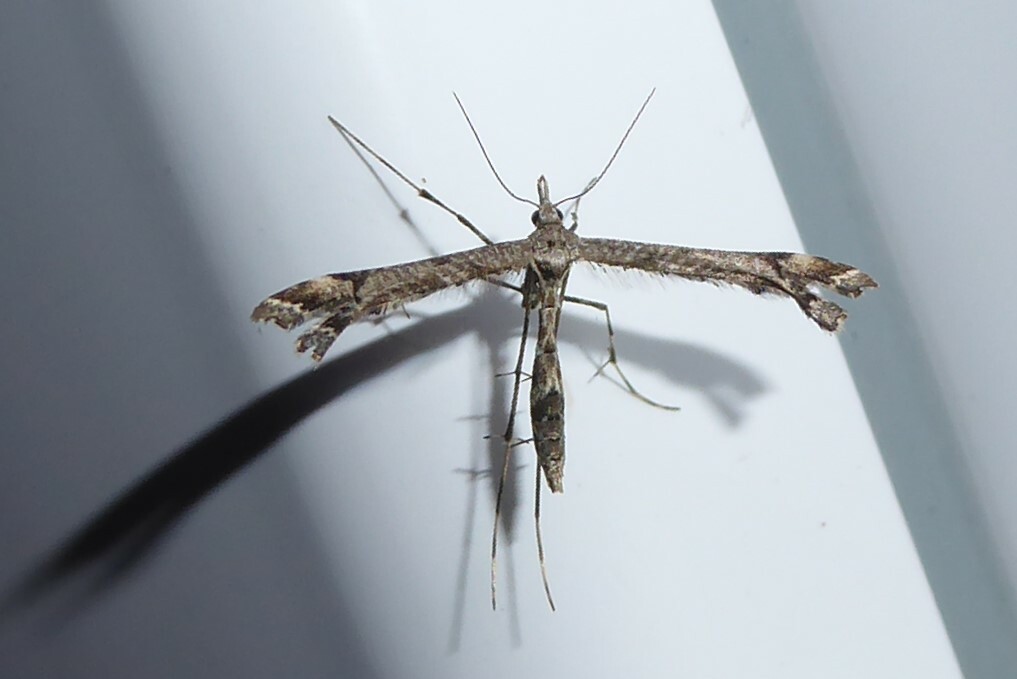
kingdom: Animalia
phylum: Arthropoda
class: Insecta
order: Lepidoptera
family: Pterophoridae
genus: Amblyptilia
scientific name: Amblyptilia repletalis
